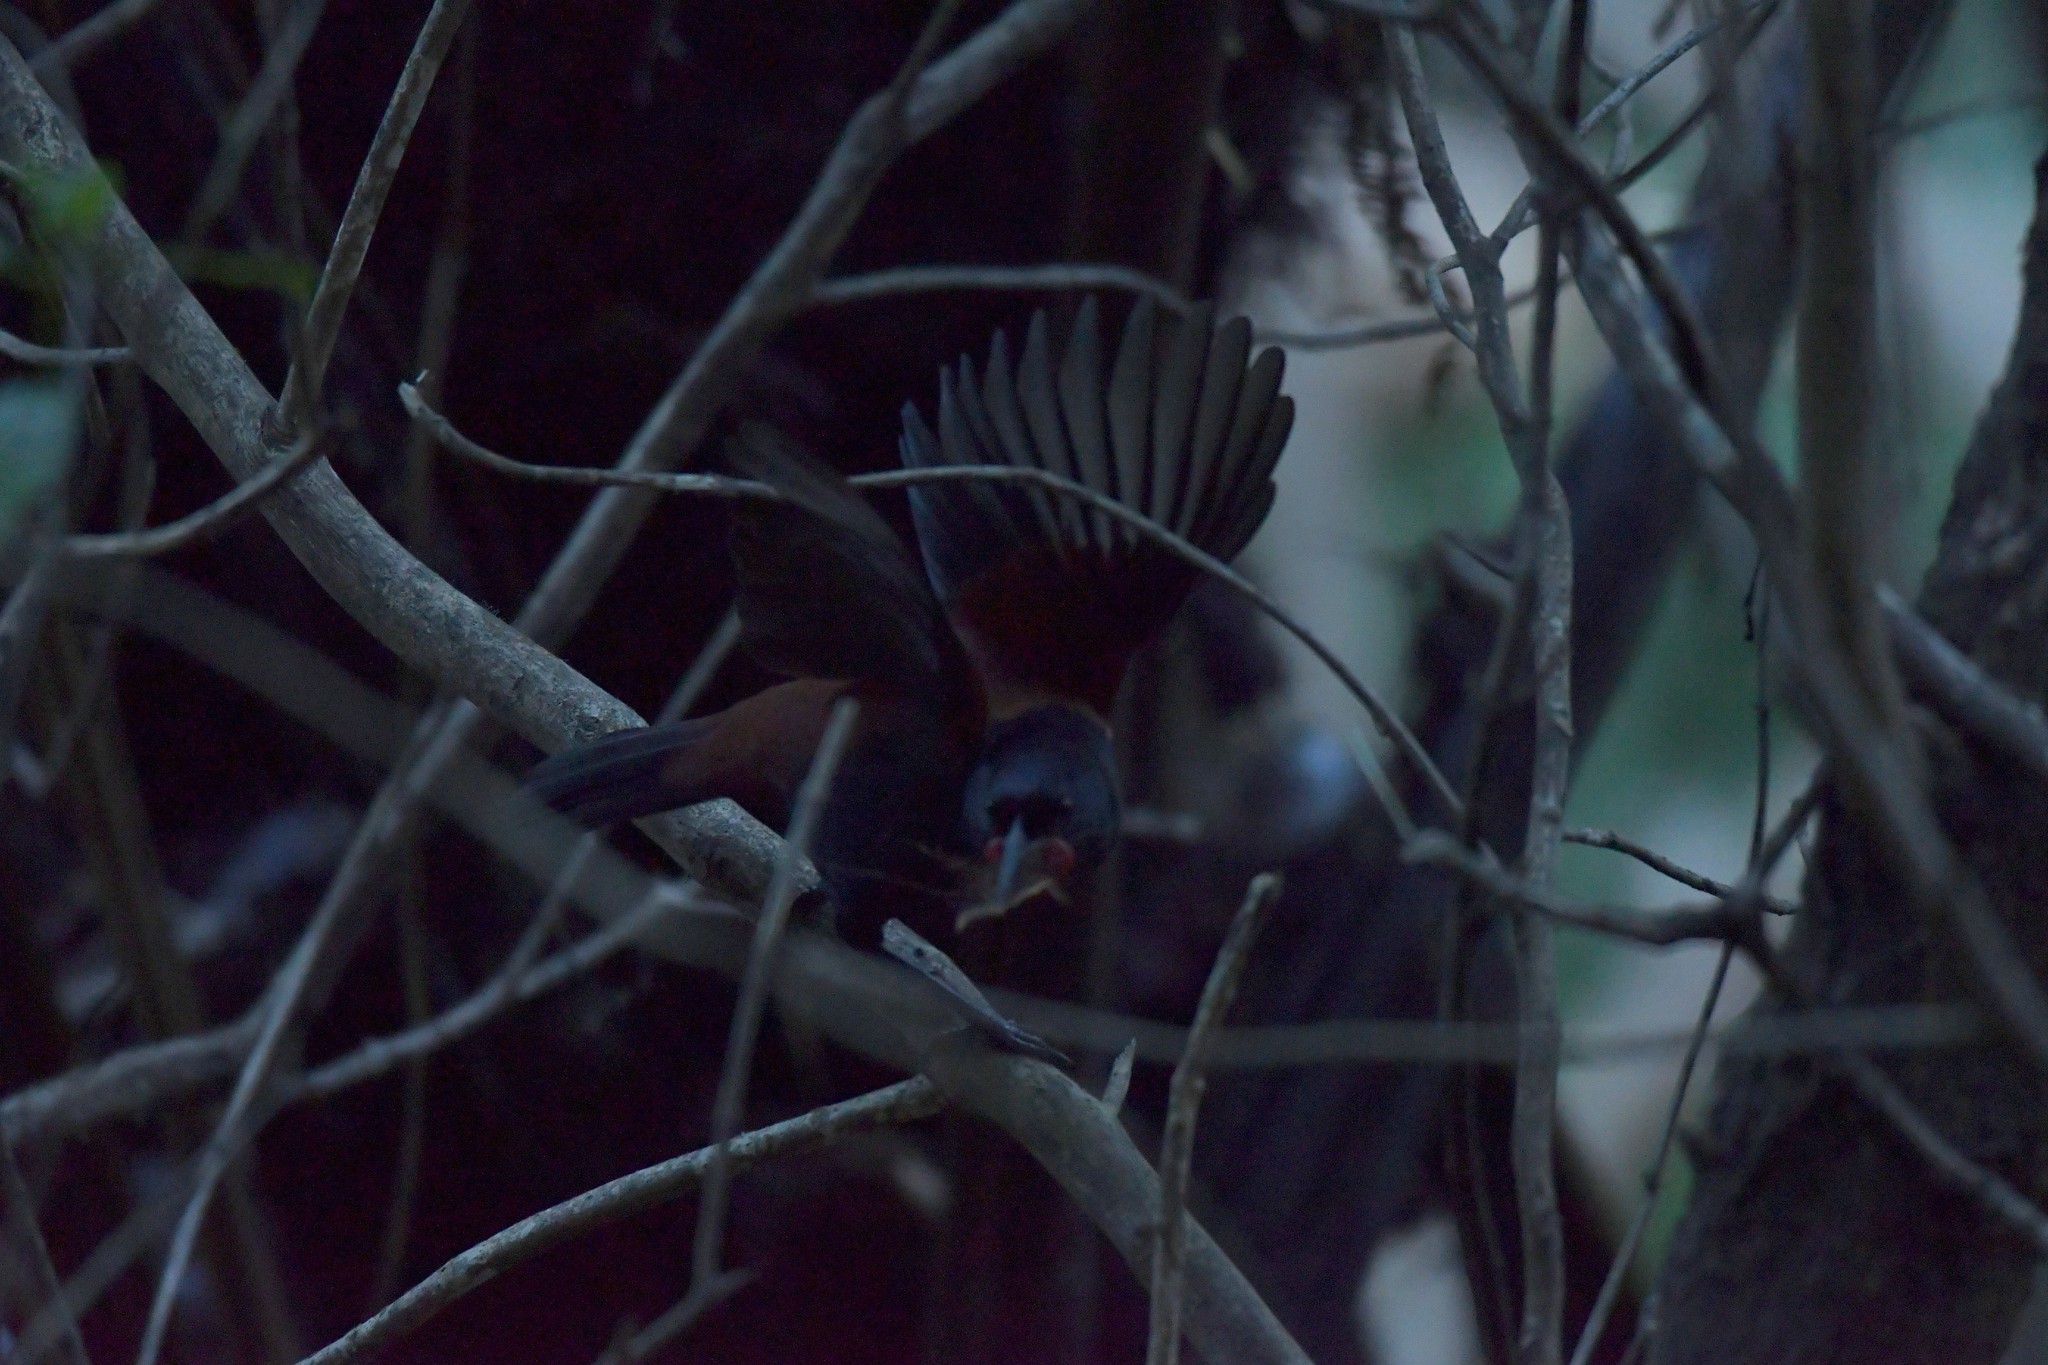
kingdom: Animalia
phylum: Chordata
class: Aves
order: Passeriformes
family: Callaeatidae
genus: Philesturnus
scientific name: Philesturnus carunculatus
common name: South island saddleback
